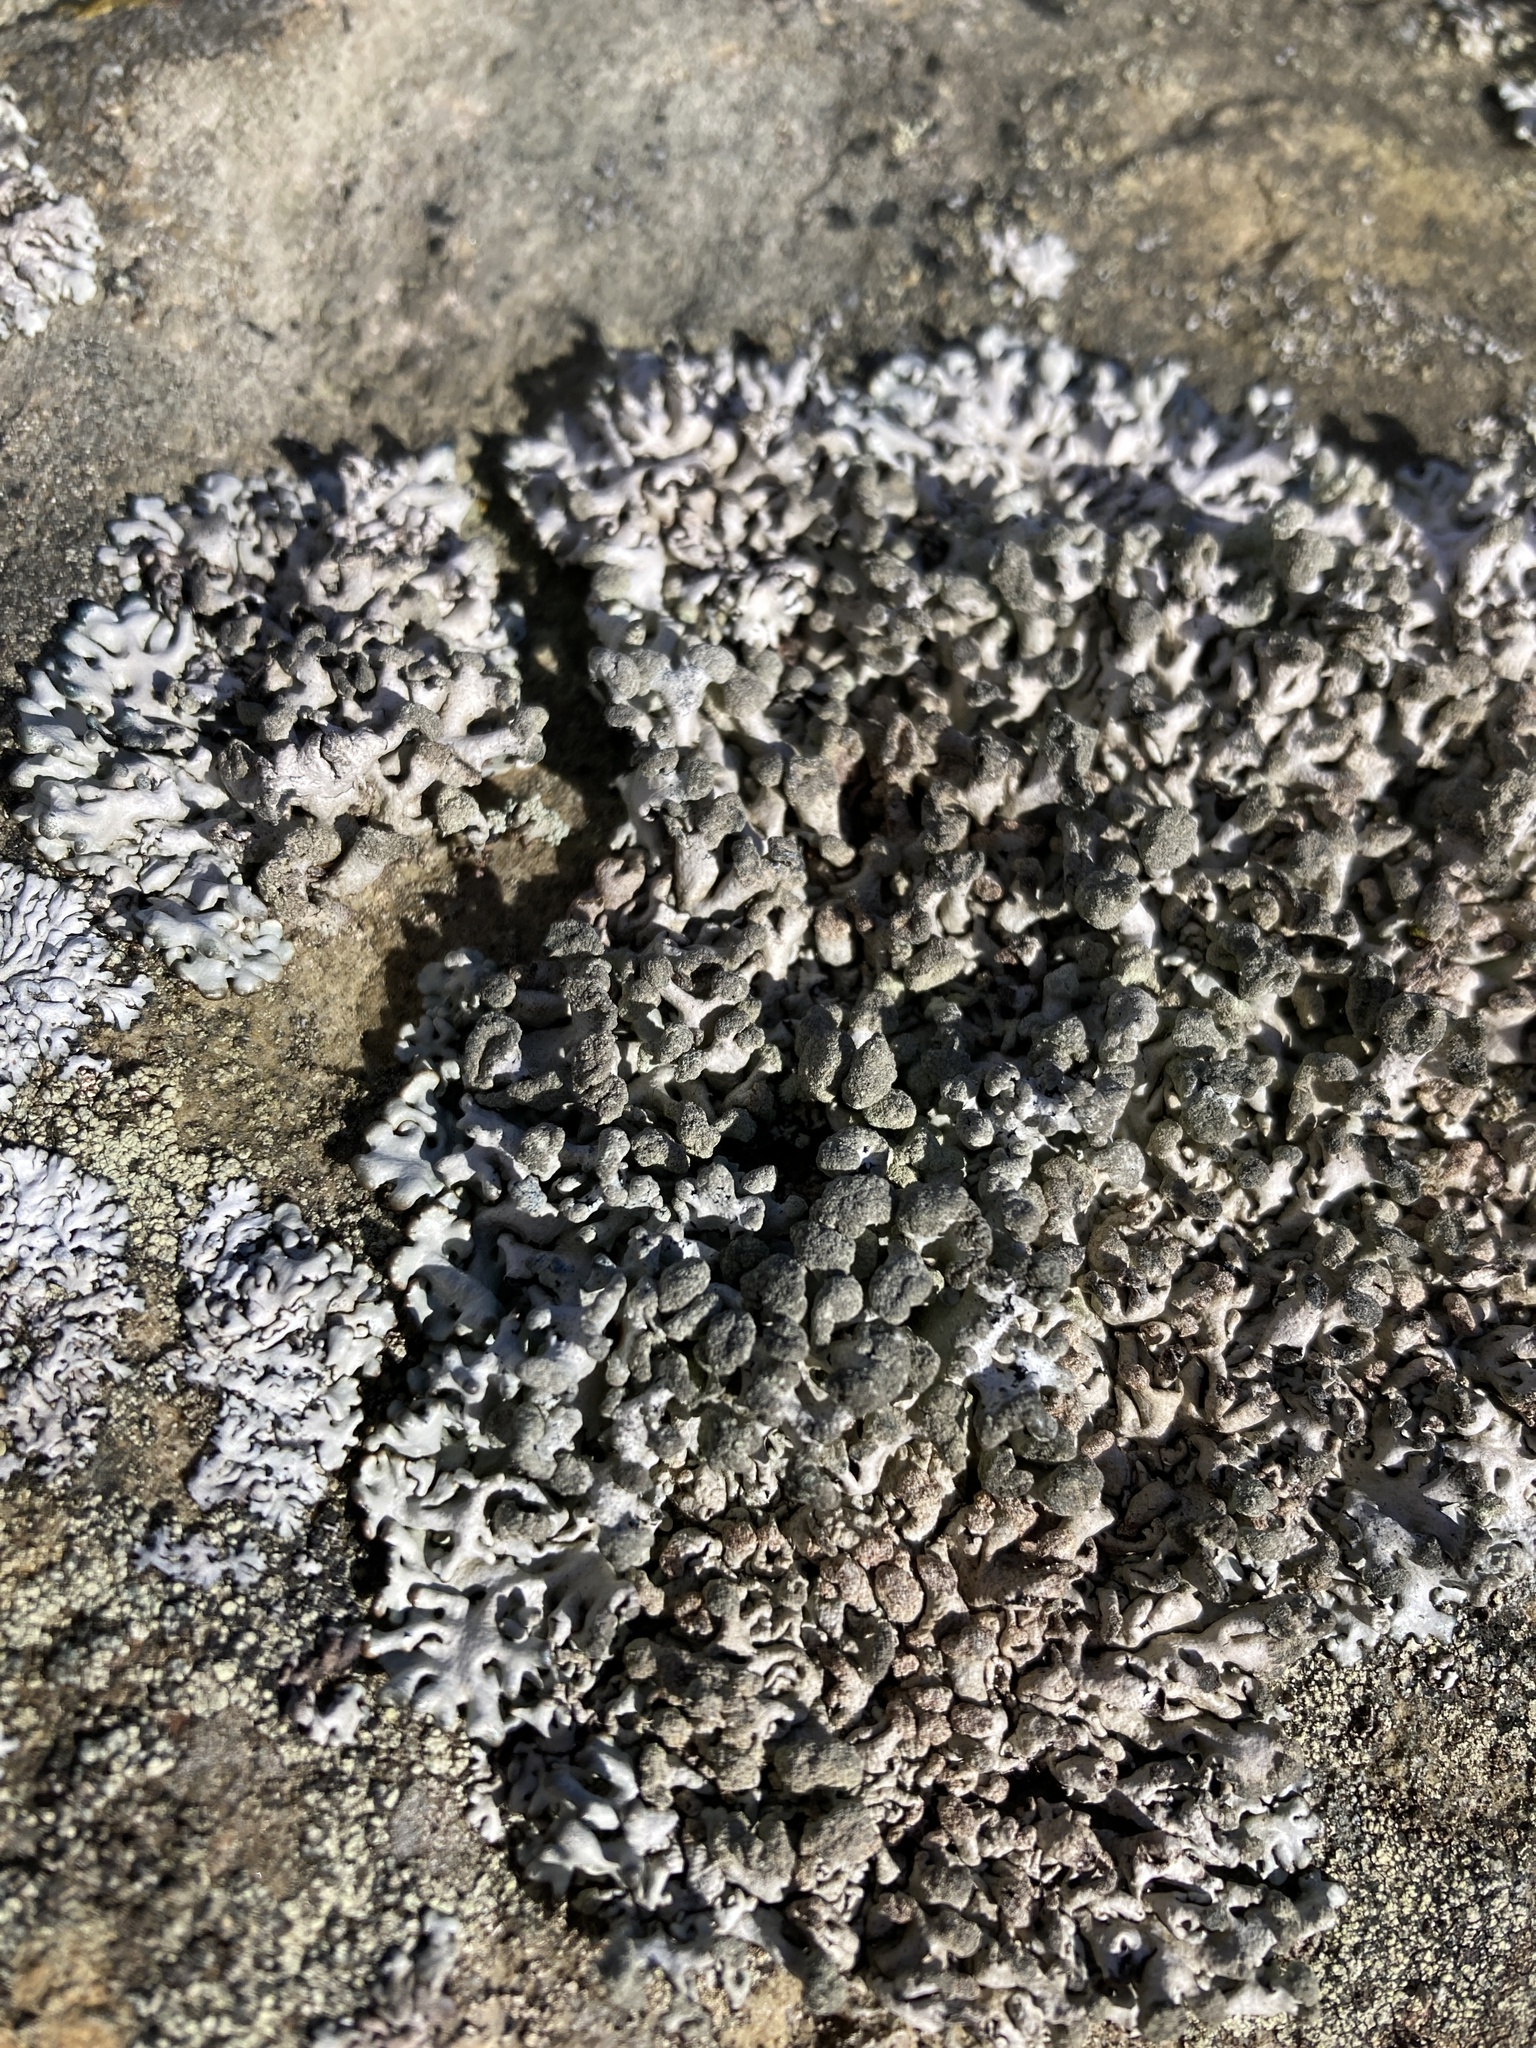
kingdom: Fungi
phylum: Ascomycota
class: Lecanoromycetes
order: Lecanorales
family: Parmeliaceae
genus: Hypogymnia
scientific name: Hypogymnia tubulosa
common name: Powder-headed tube lichen
